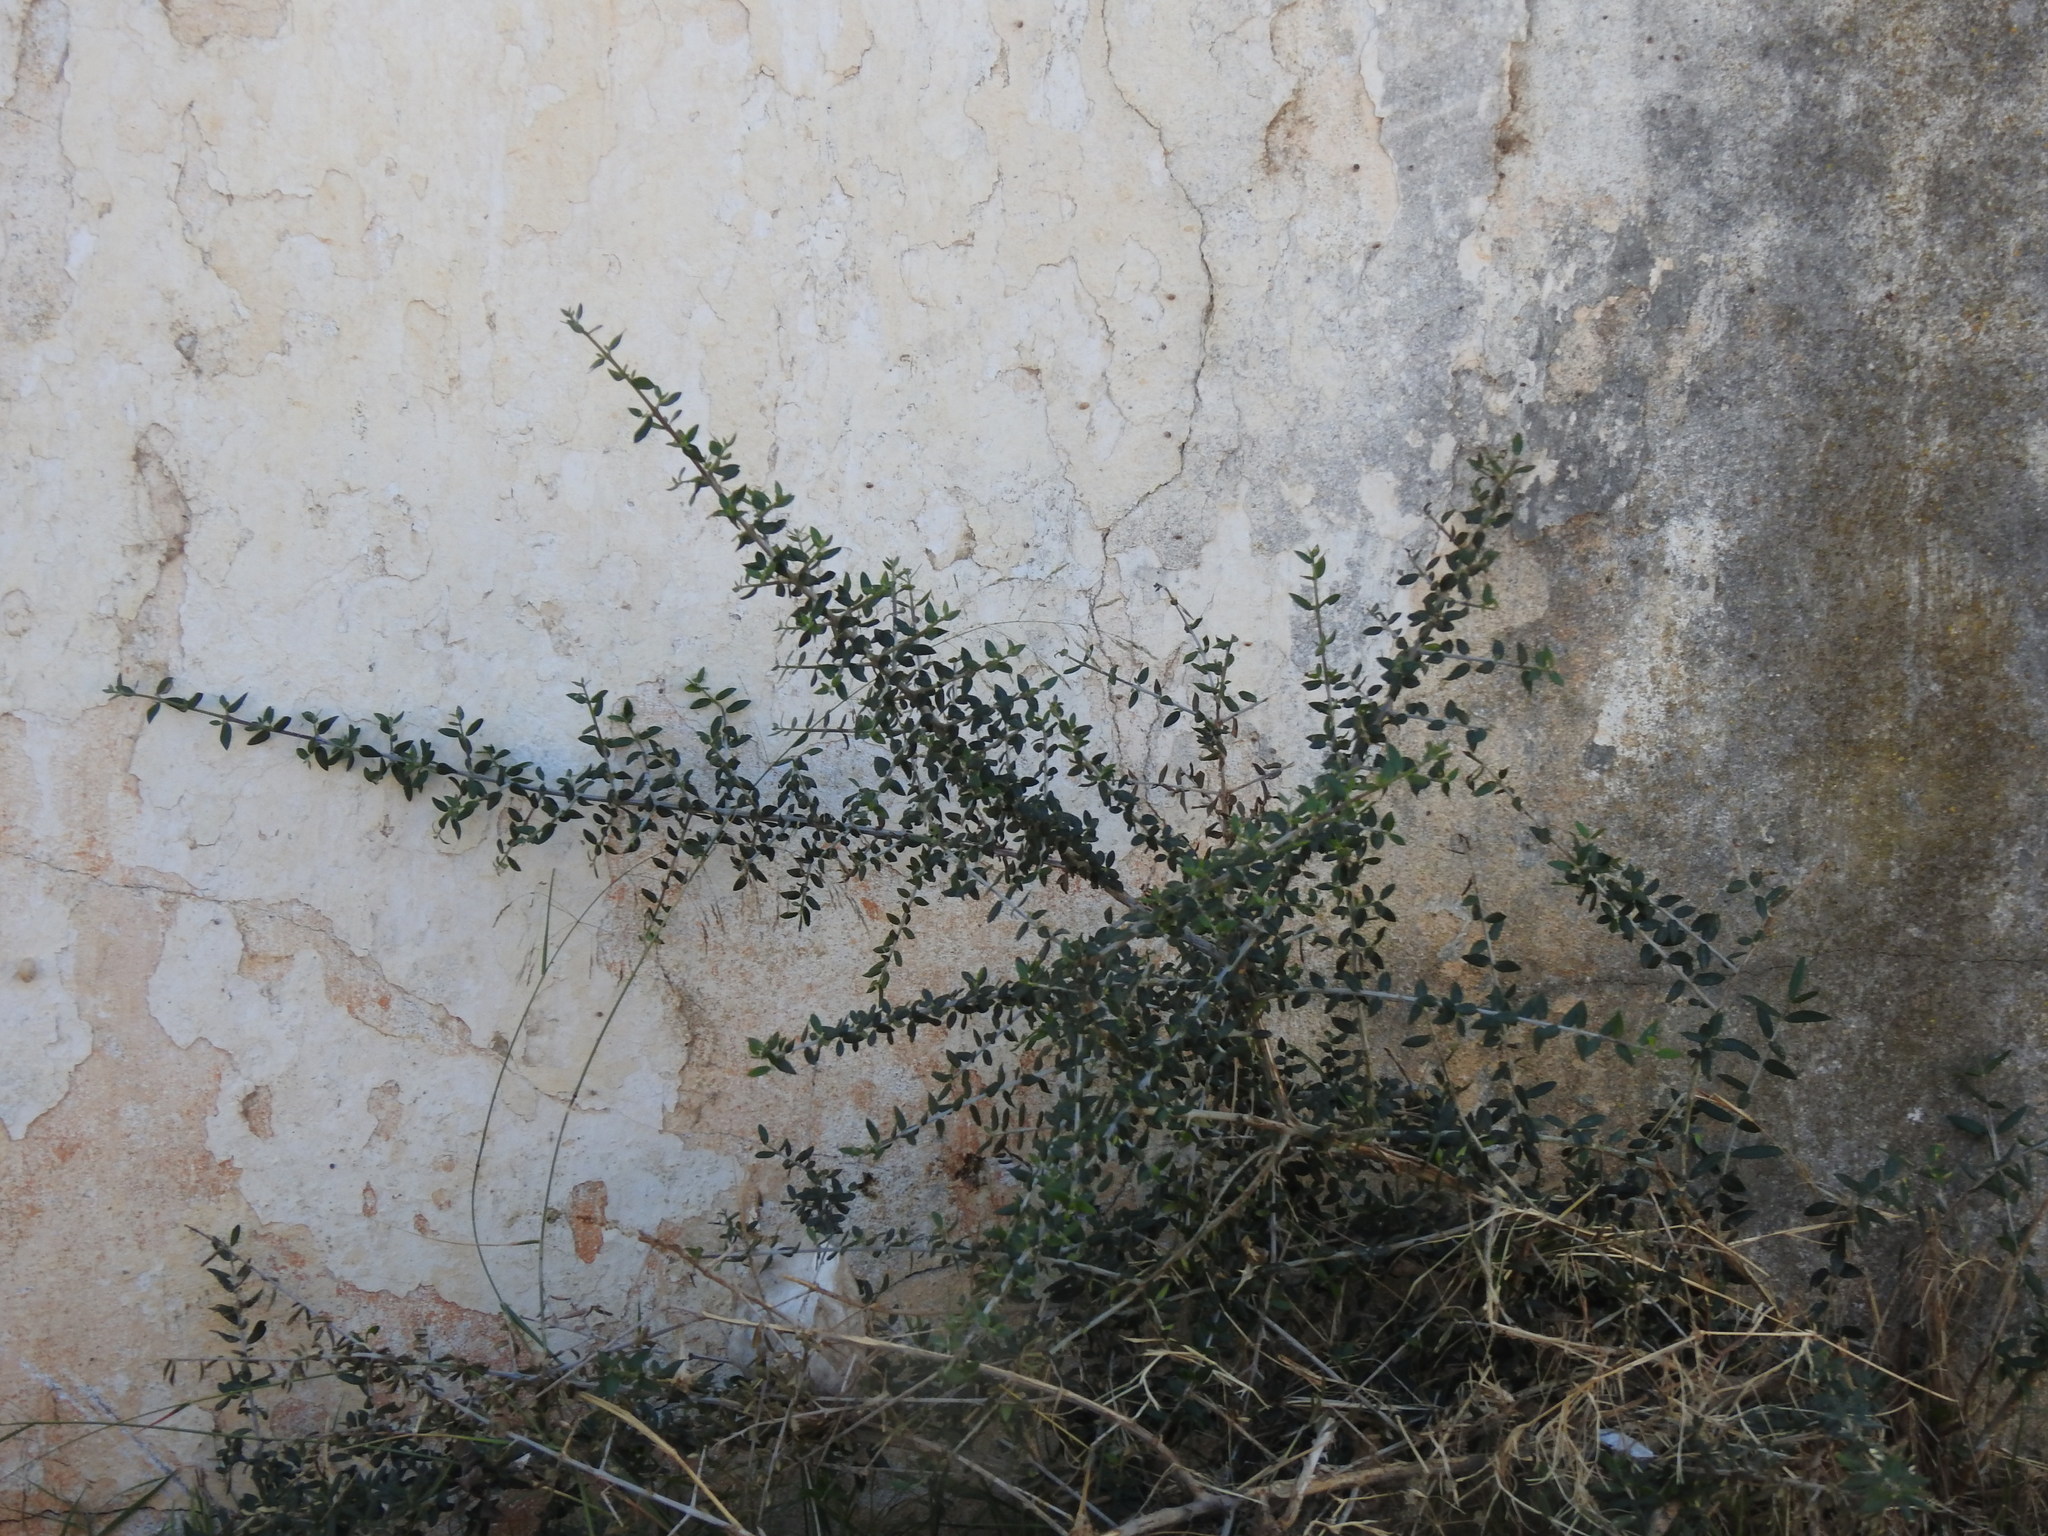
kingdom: Plantae
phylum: Tracheophyta
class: Magnoliopsida
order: Lamiales
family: Oleaceae
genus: Olea
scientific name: Olea europaea
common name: Olive
